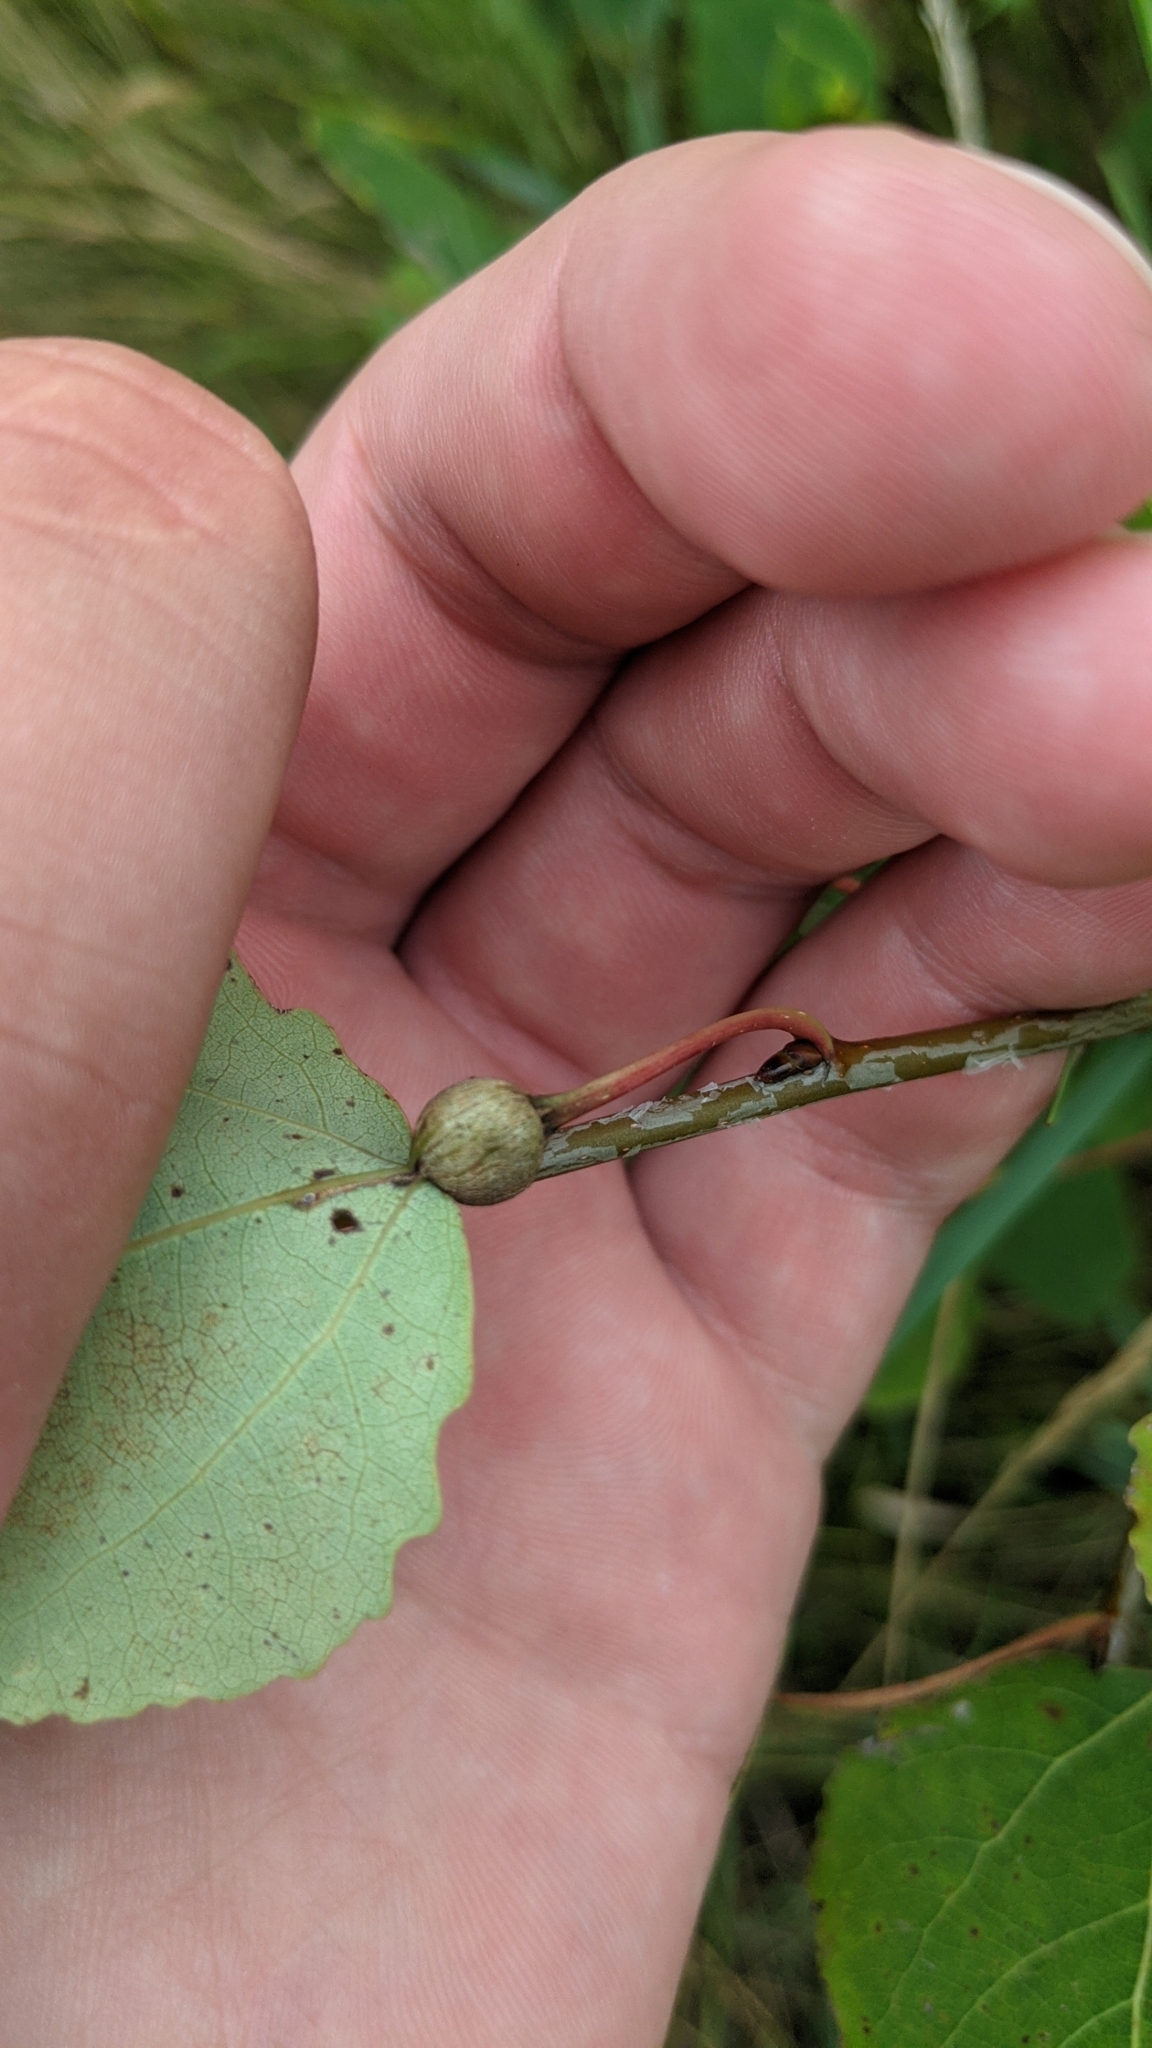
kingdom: Animalia
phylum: Arthropoda
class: Insecta
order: Lepidoptera
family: Nepticulidae
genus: Ectoedemia
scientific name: Ectoedemia populella
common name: Aspen petiole gall moth
